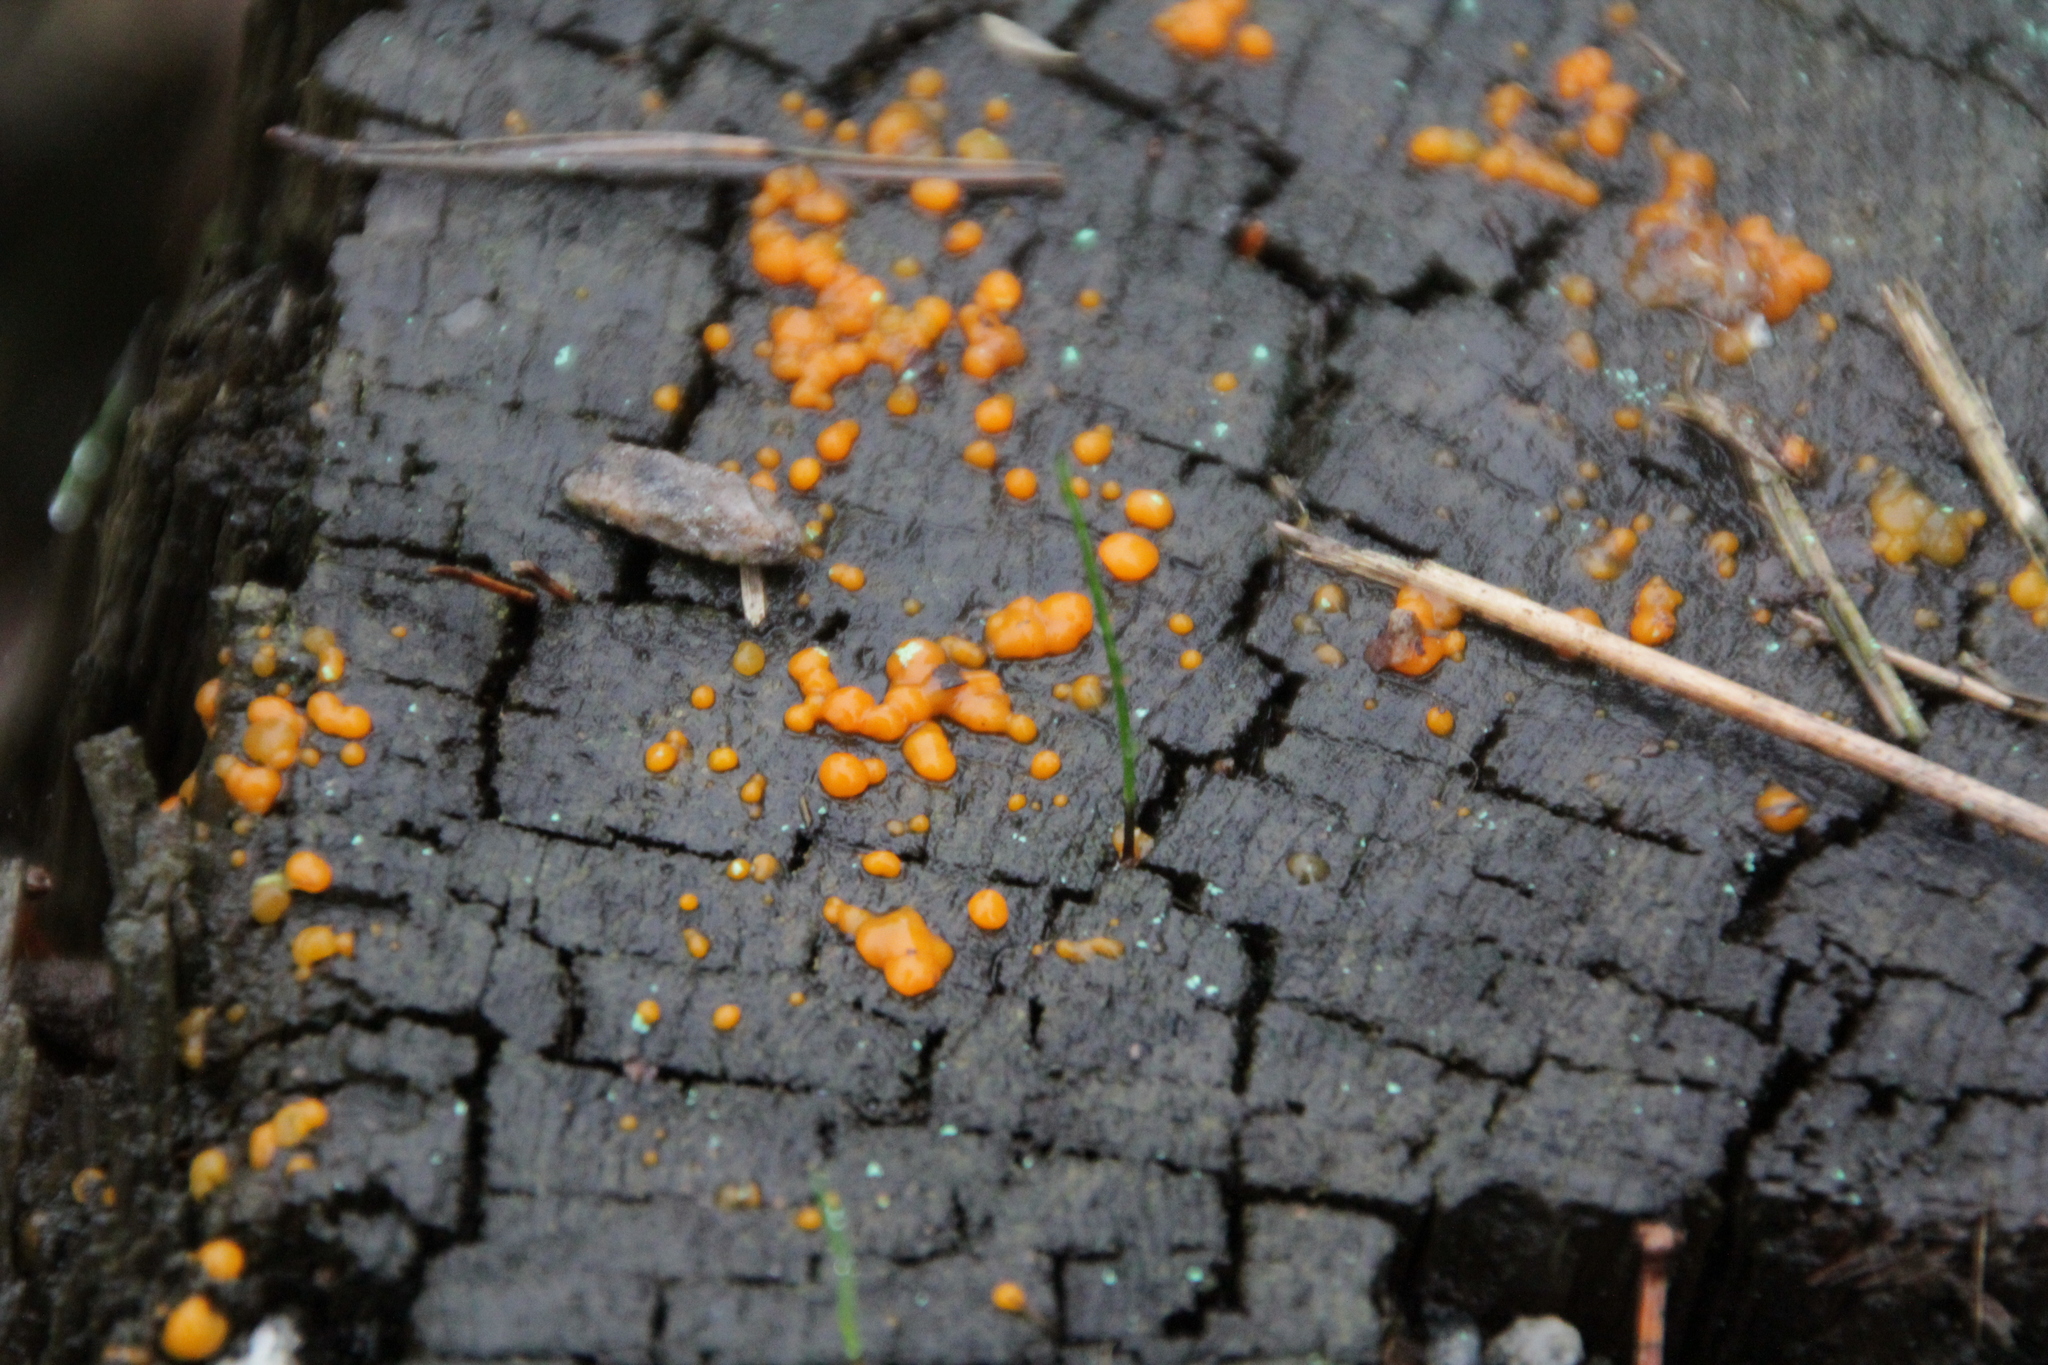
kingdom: Fungi
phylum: Basidiomycota
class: Dacrymycetes
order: Dacrymycetales
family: Dacrymycetaceae
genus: Dacrymyces
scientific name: Dacrymyces stillatus
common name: Common jelly spot
